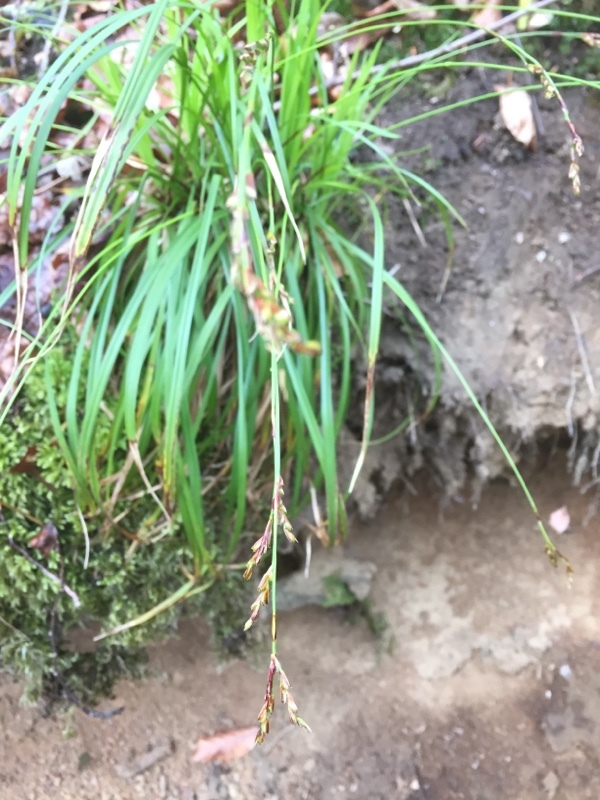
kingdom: Plantae
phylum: Tracheophyta
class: Liliopsida
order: Poales
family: Cyperaceae
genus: Carex
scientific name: Carex digitata
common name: Fingered sedge
